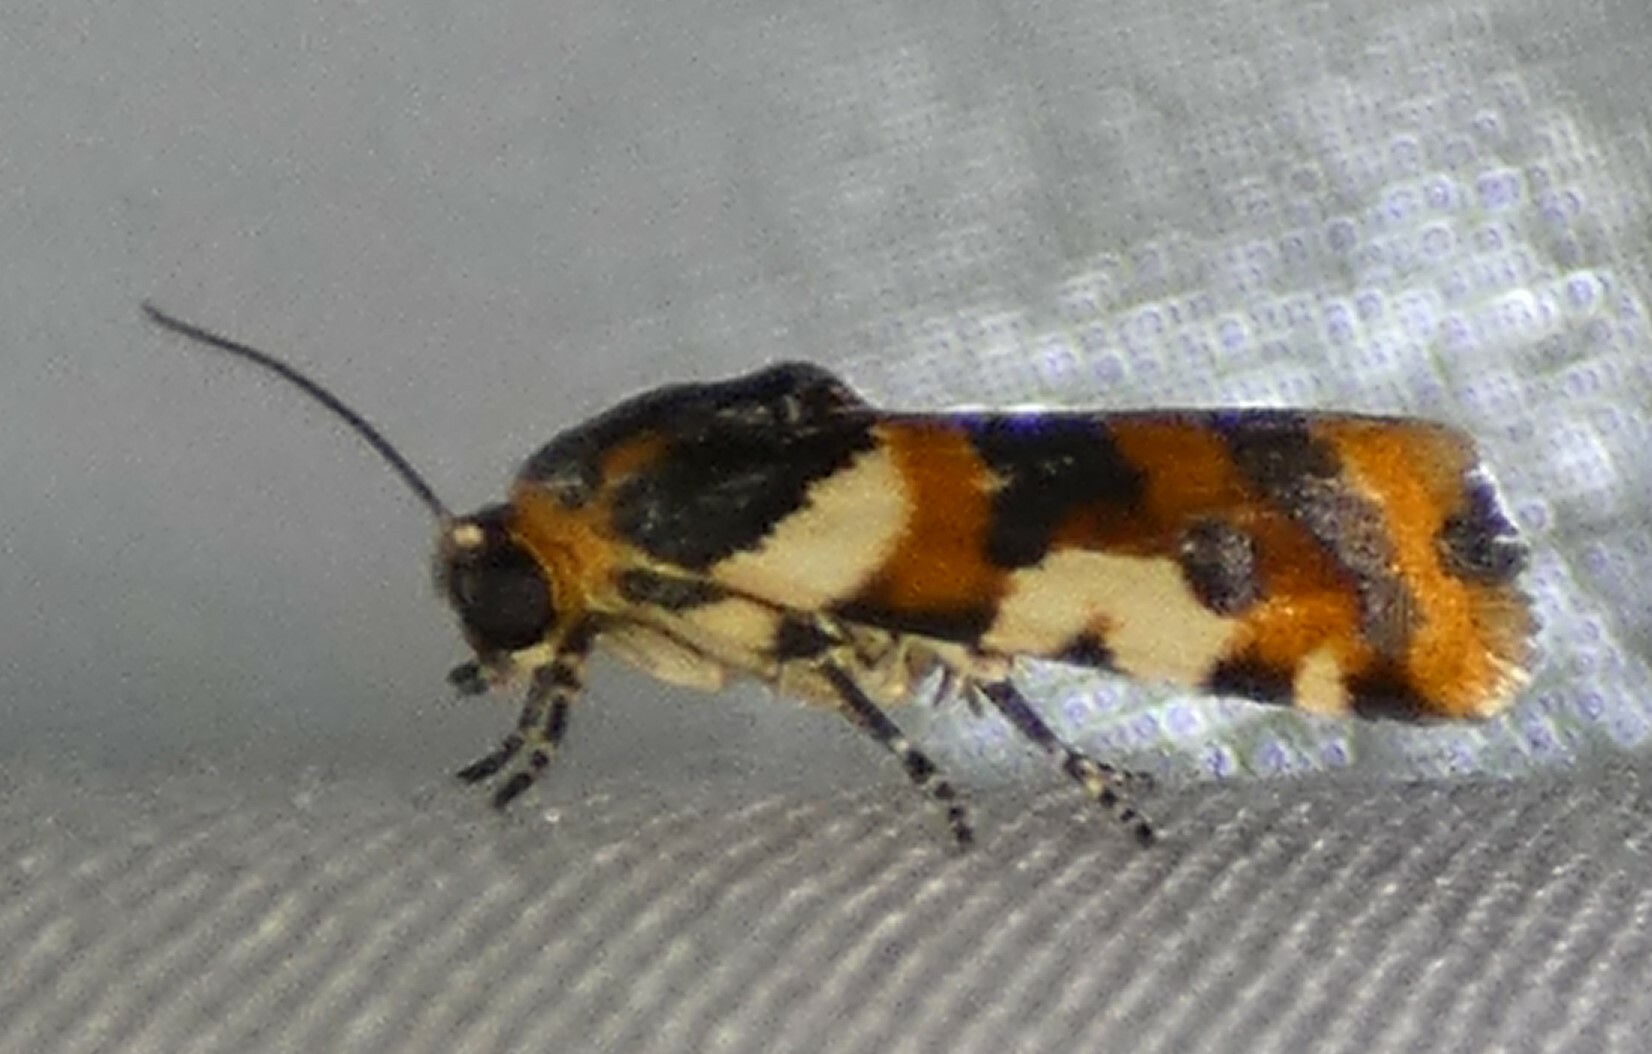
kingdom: Animalia
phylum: Arthropoda
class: Insecta
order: Lepidoptera
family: Noctuidae
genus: Acontia
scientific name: Acontia dama
